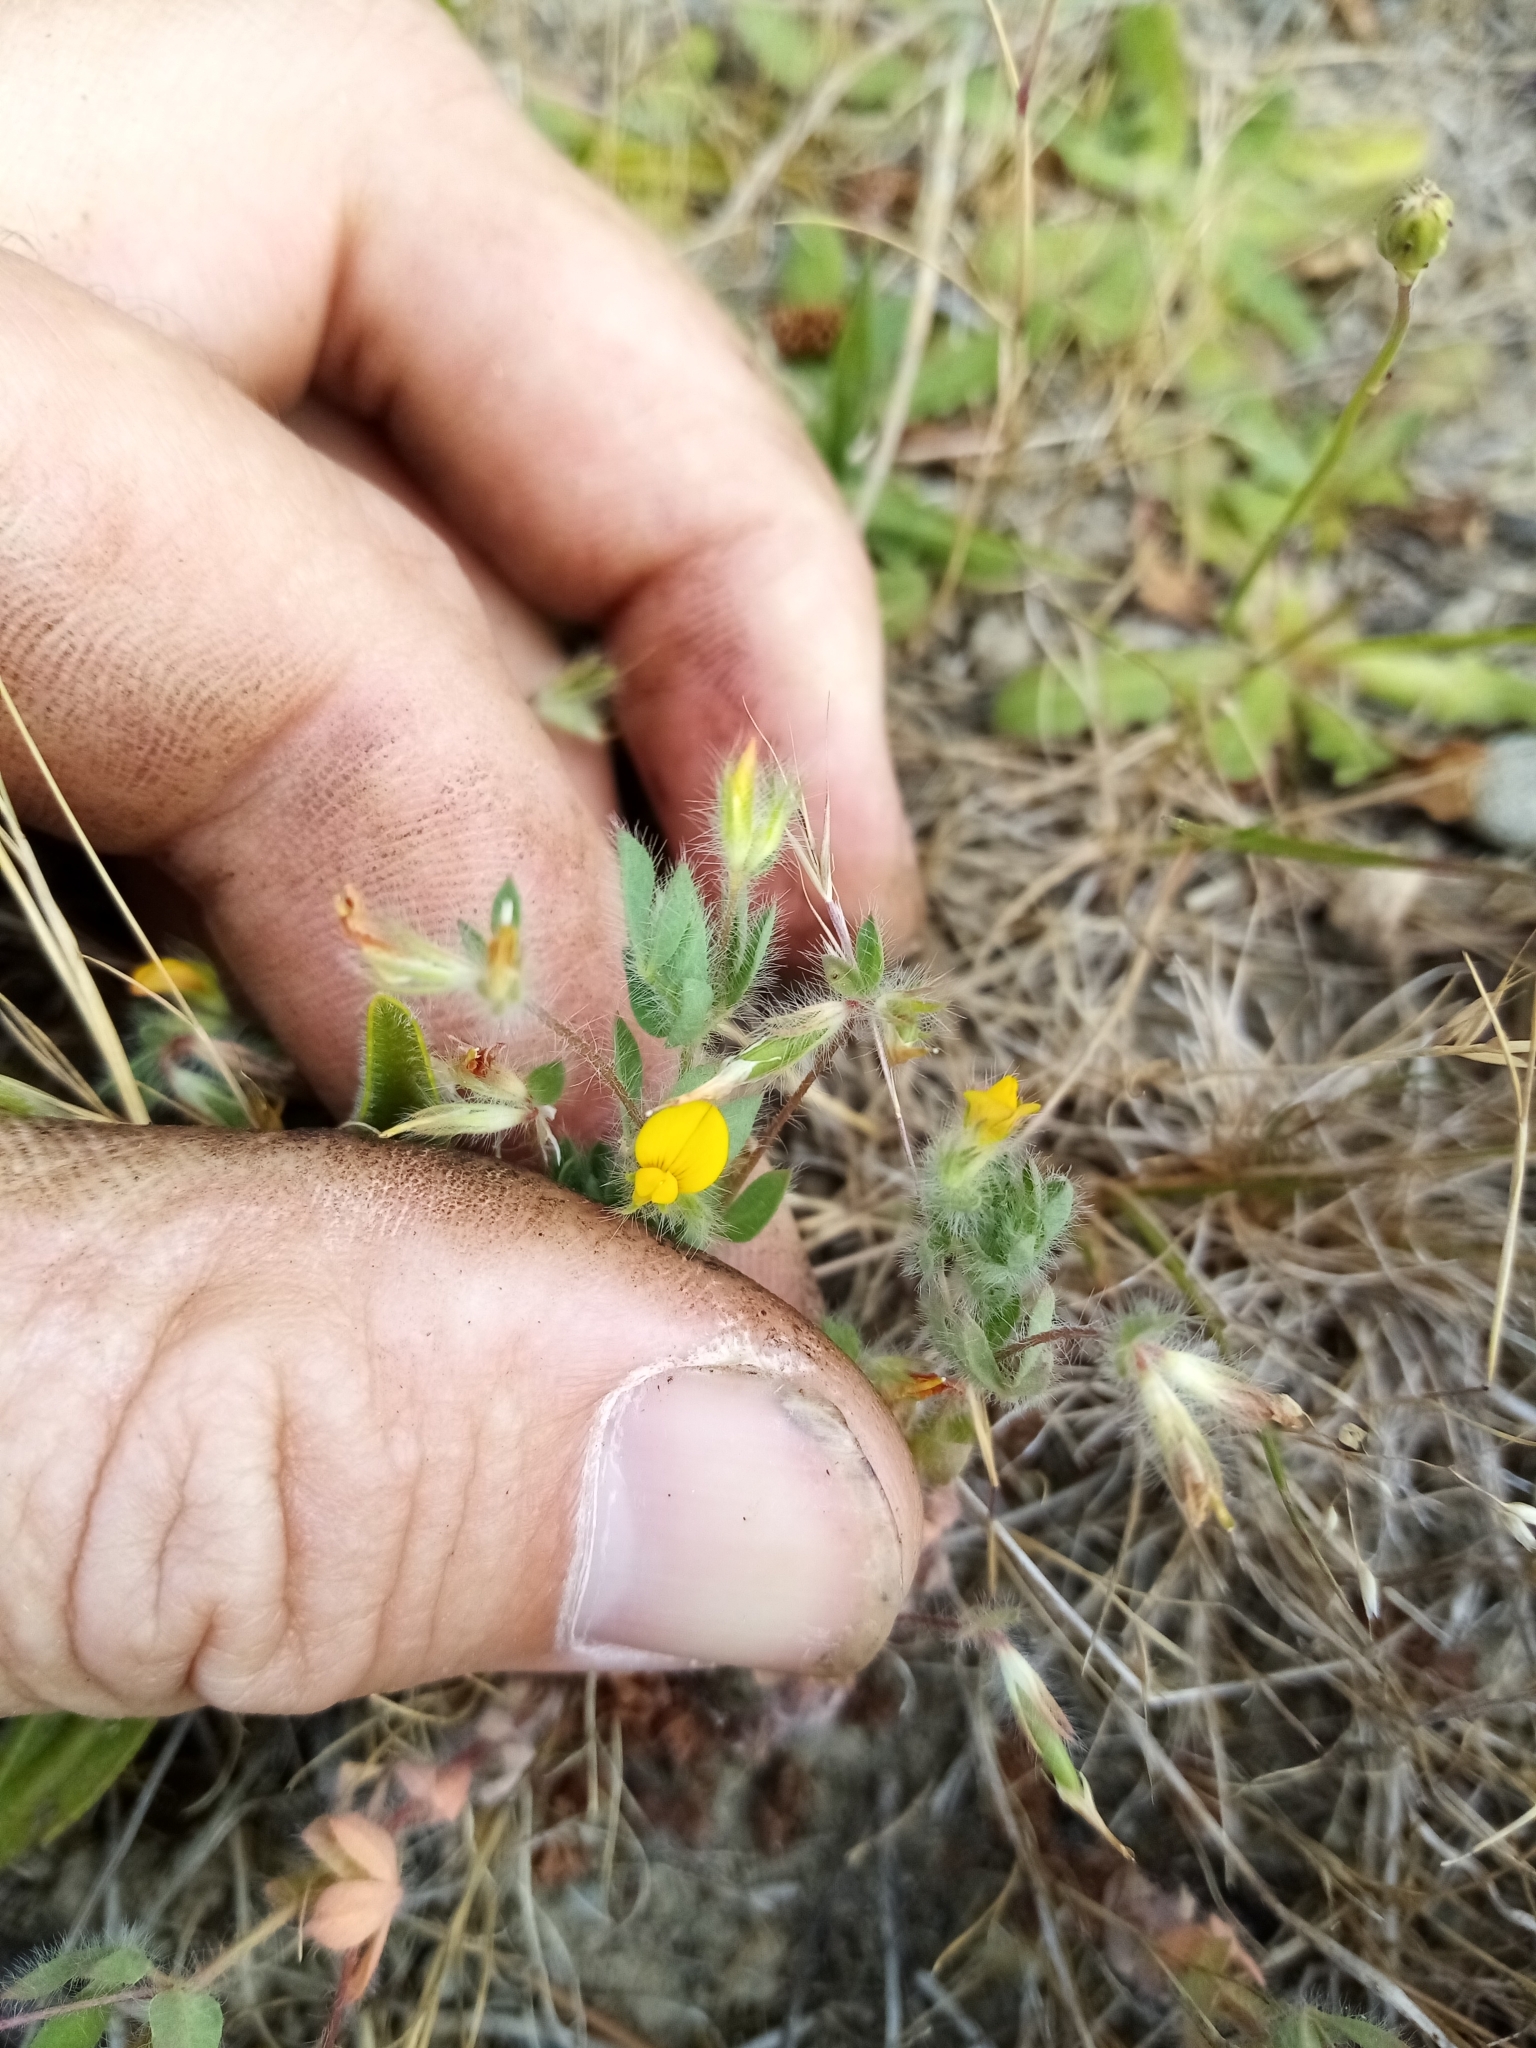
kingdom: Plantae
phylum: Tracheophyta
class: Magnoliopsida
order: Fabales
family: Fabaceae
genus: Lotus
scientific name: Lotus subbiflorus
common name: Hairy bird's-foot trefoil
